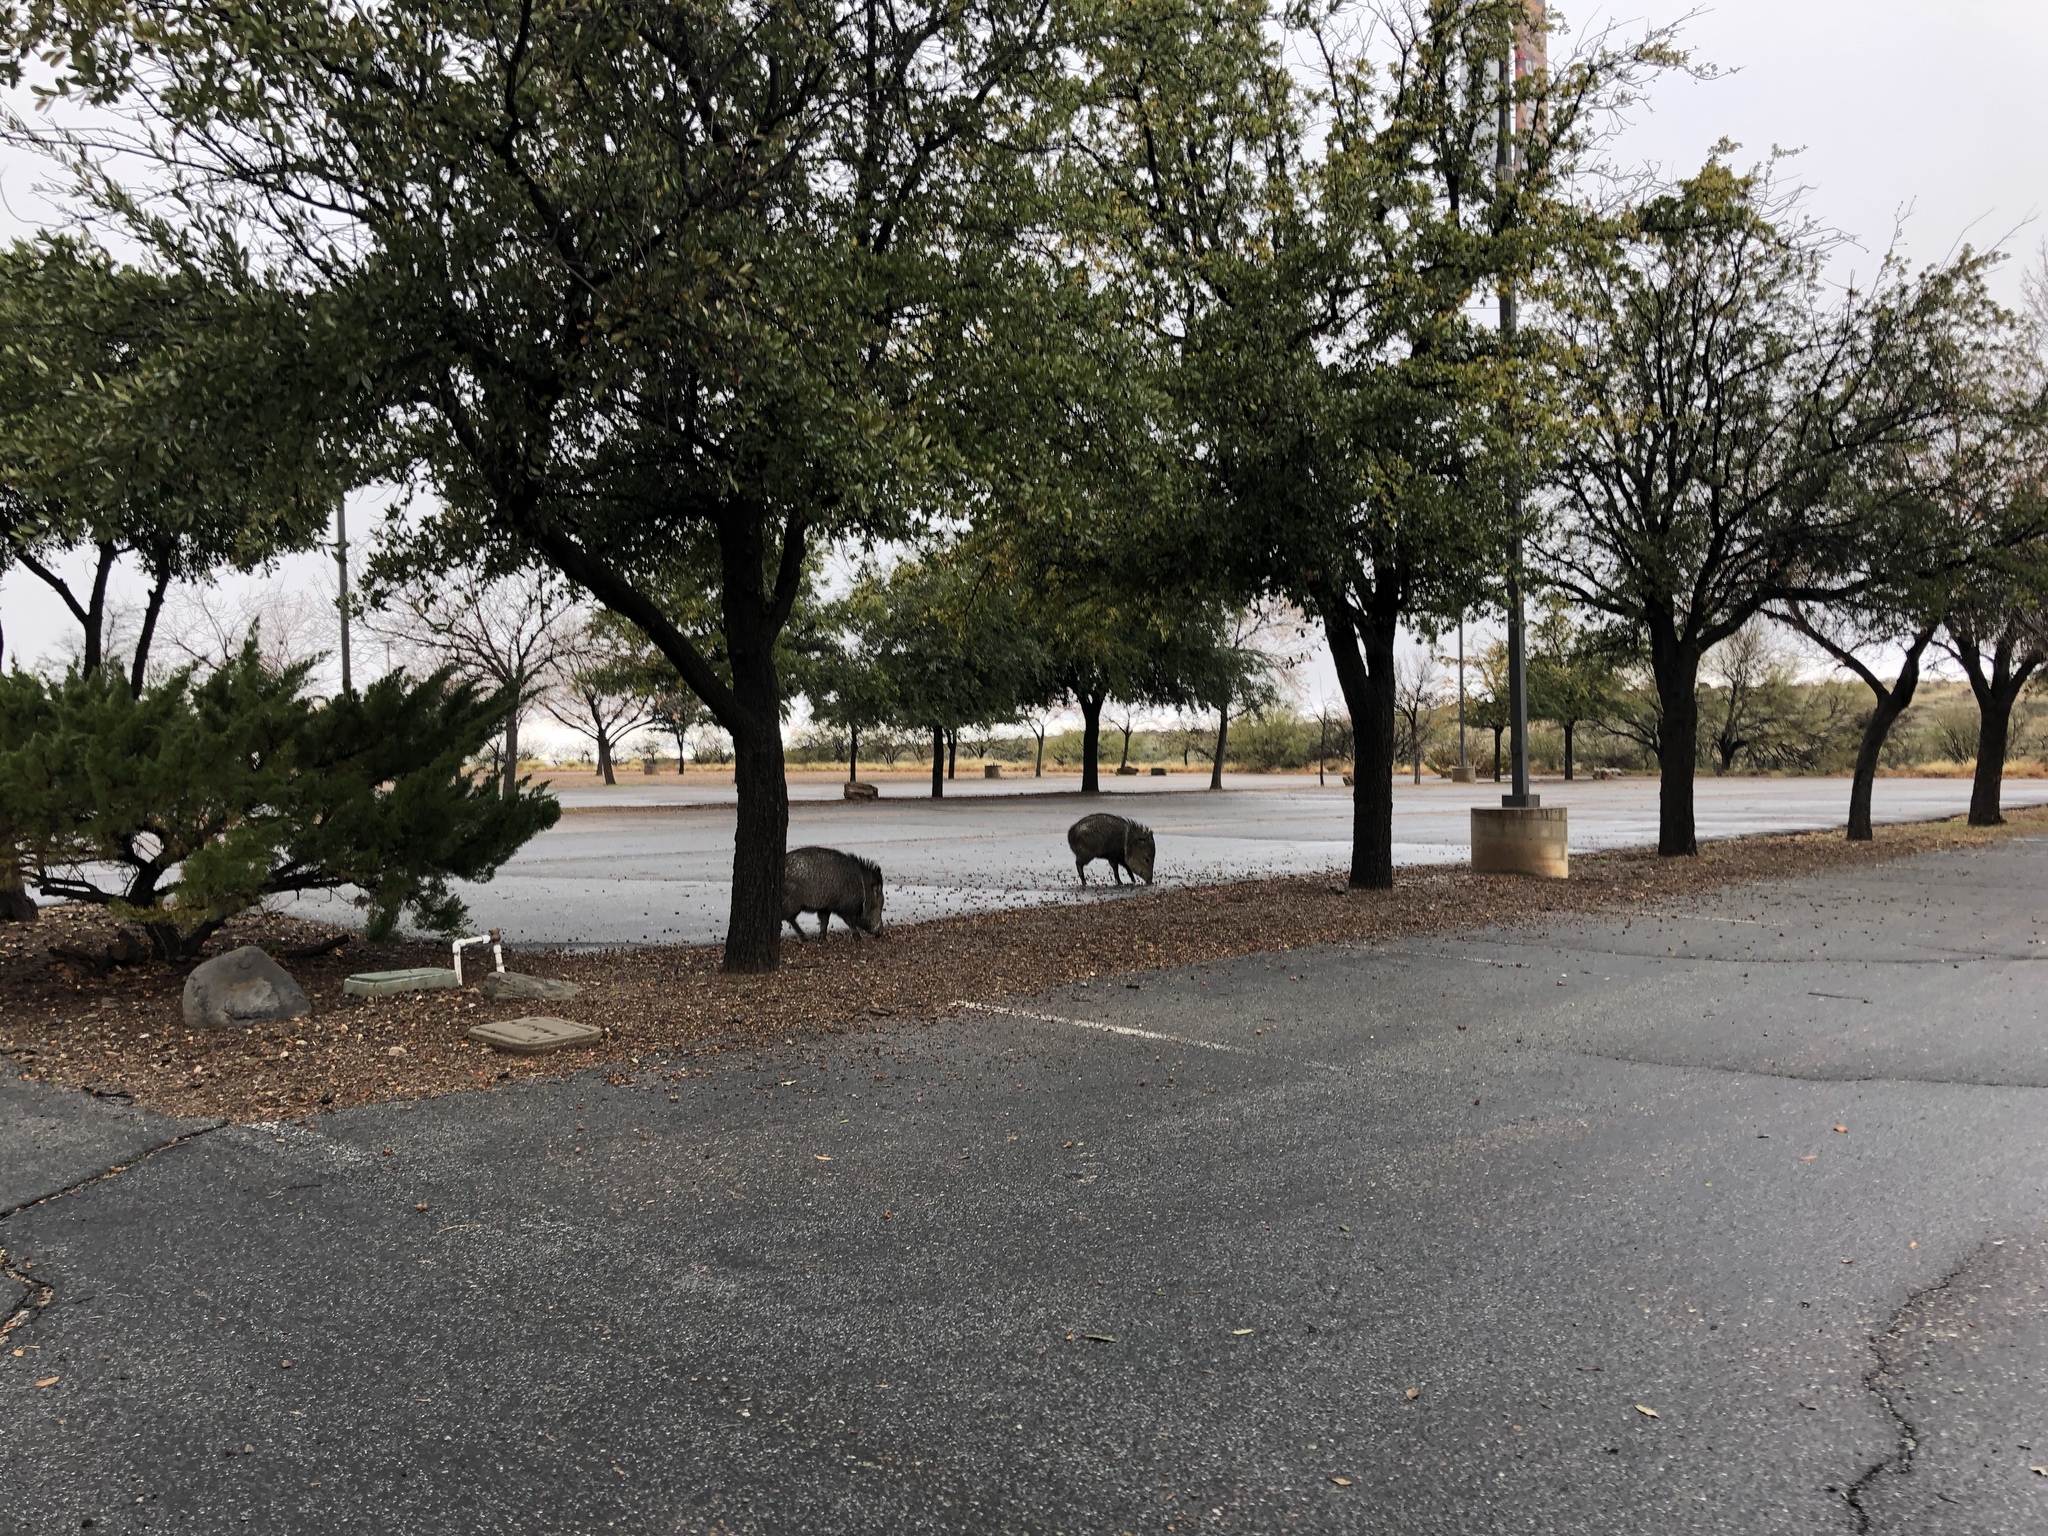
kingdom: Animalia
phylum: Chordata
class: Mammalia
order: Artiodactyla
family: Tayassuidae
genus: Pecari
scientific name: Pecari tajacu
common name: Collared peccary
